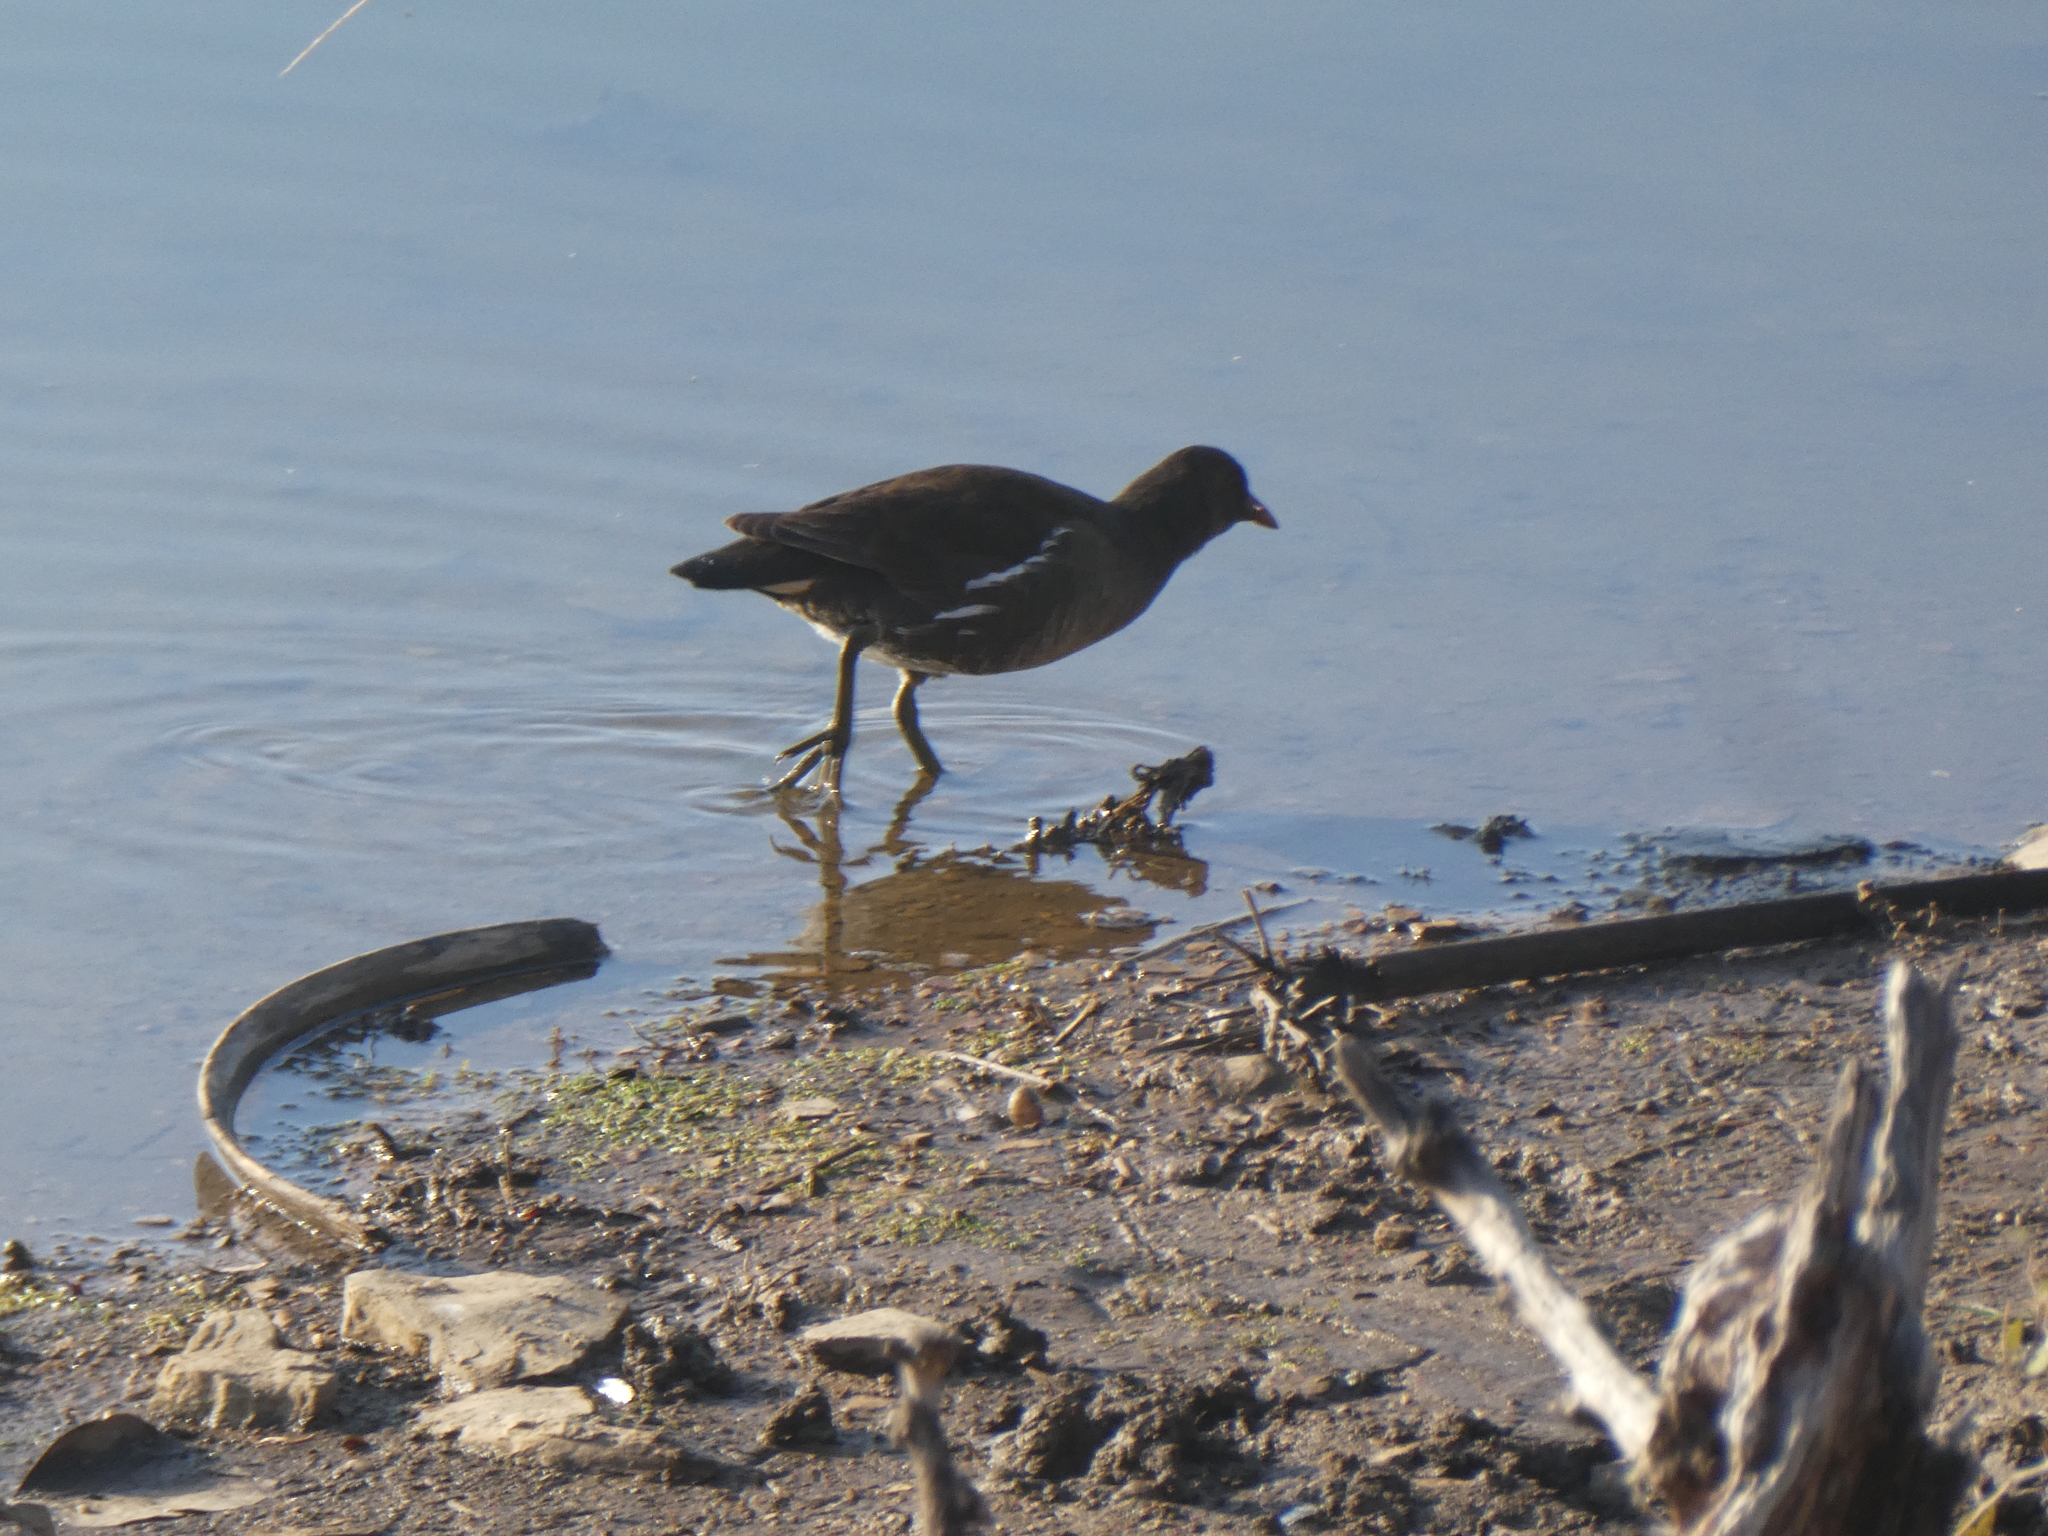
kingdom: Animalia
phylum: Chordata
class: Aves
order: Gruiformes
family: Rallidae
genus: Gallinula
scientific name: Gallinula chloropus
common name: Common moorhen
